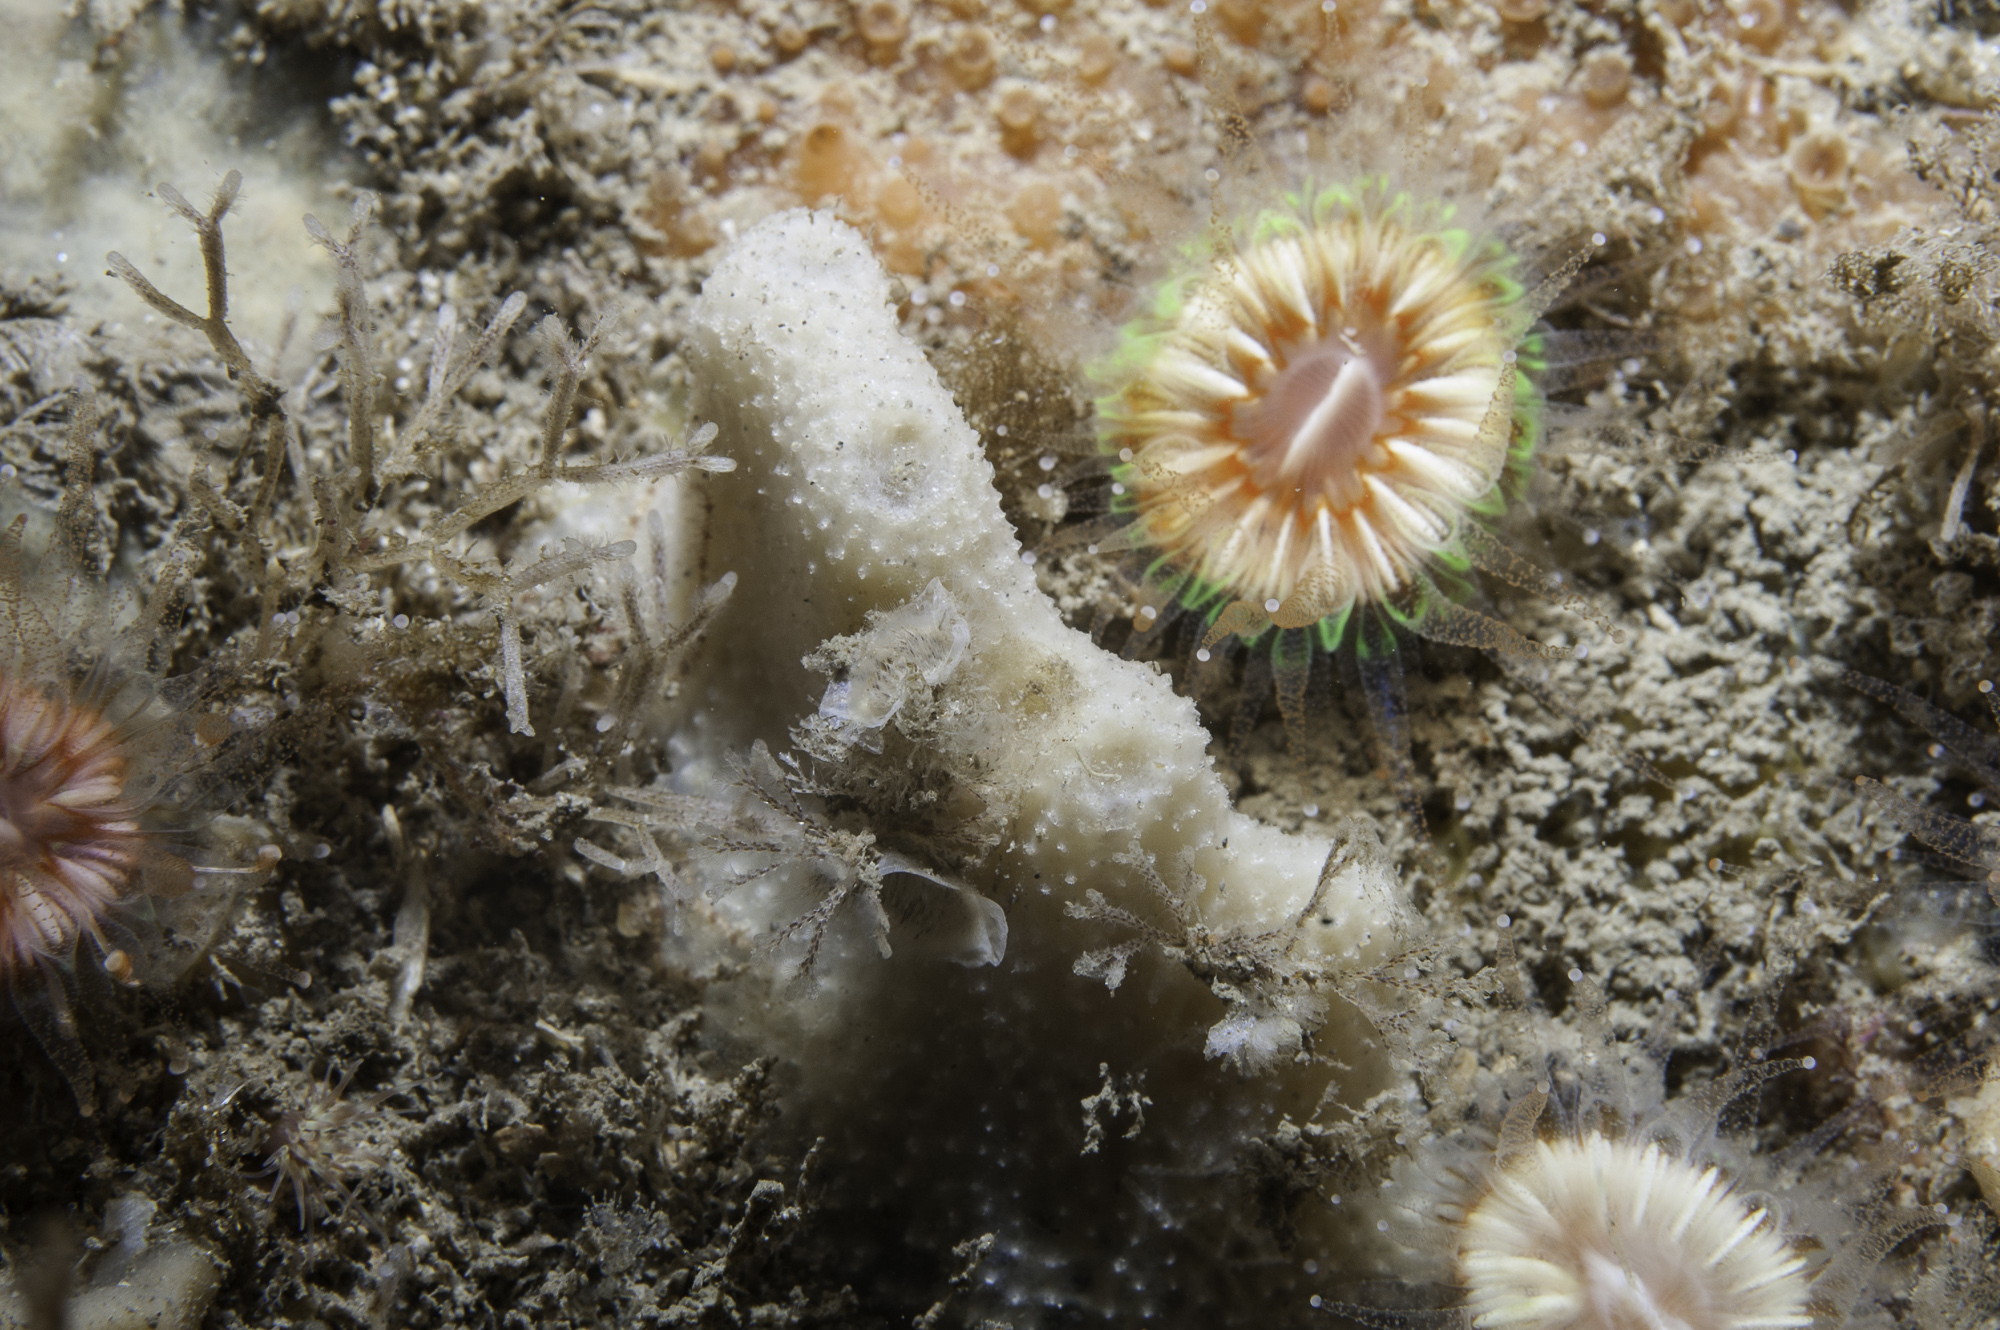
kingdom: Animalia
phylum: Porifera
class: Demospongiae
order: Dictyoceratida
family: Dysideidae
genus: Dysidea
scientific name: Dysidea fragilis
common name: Goosebump sponge
